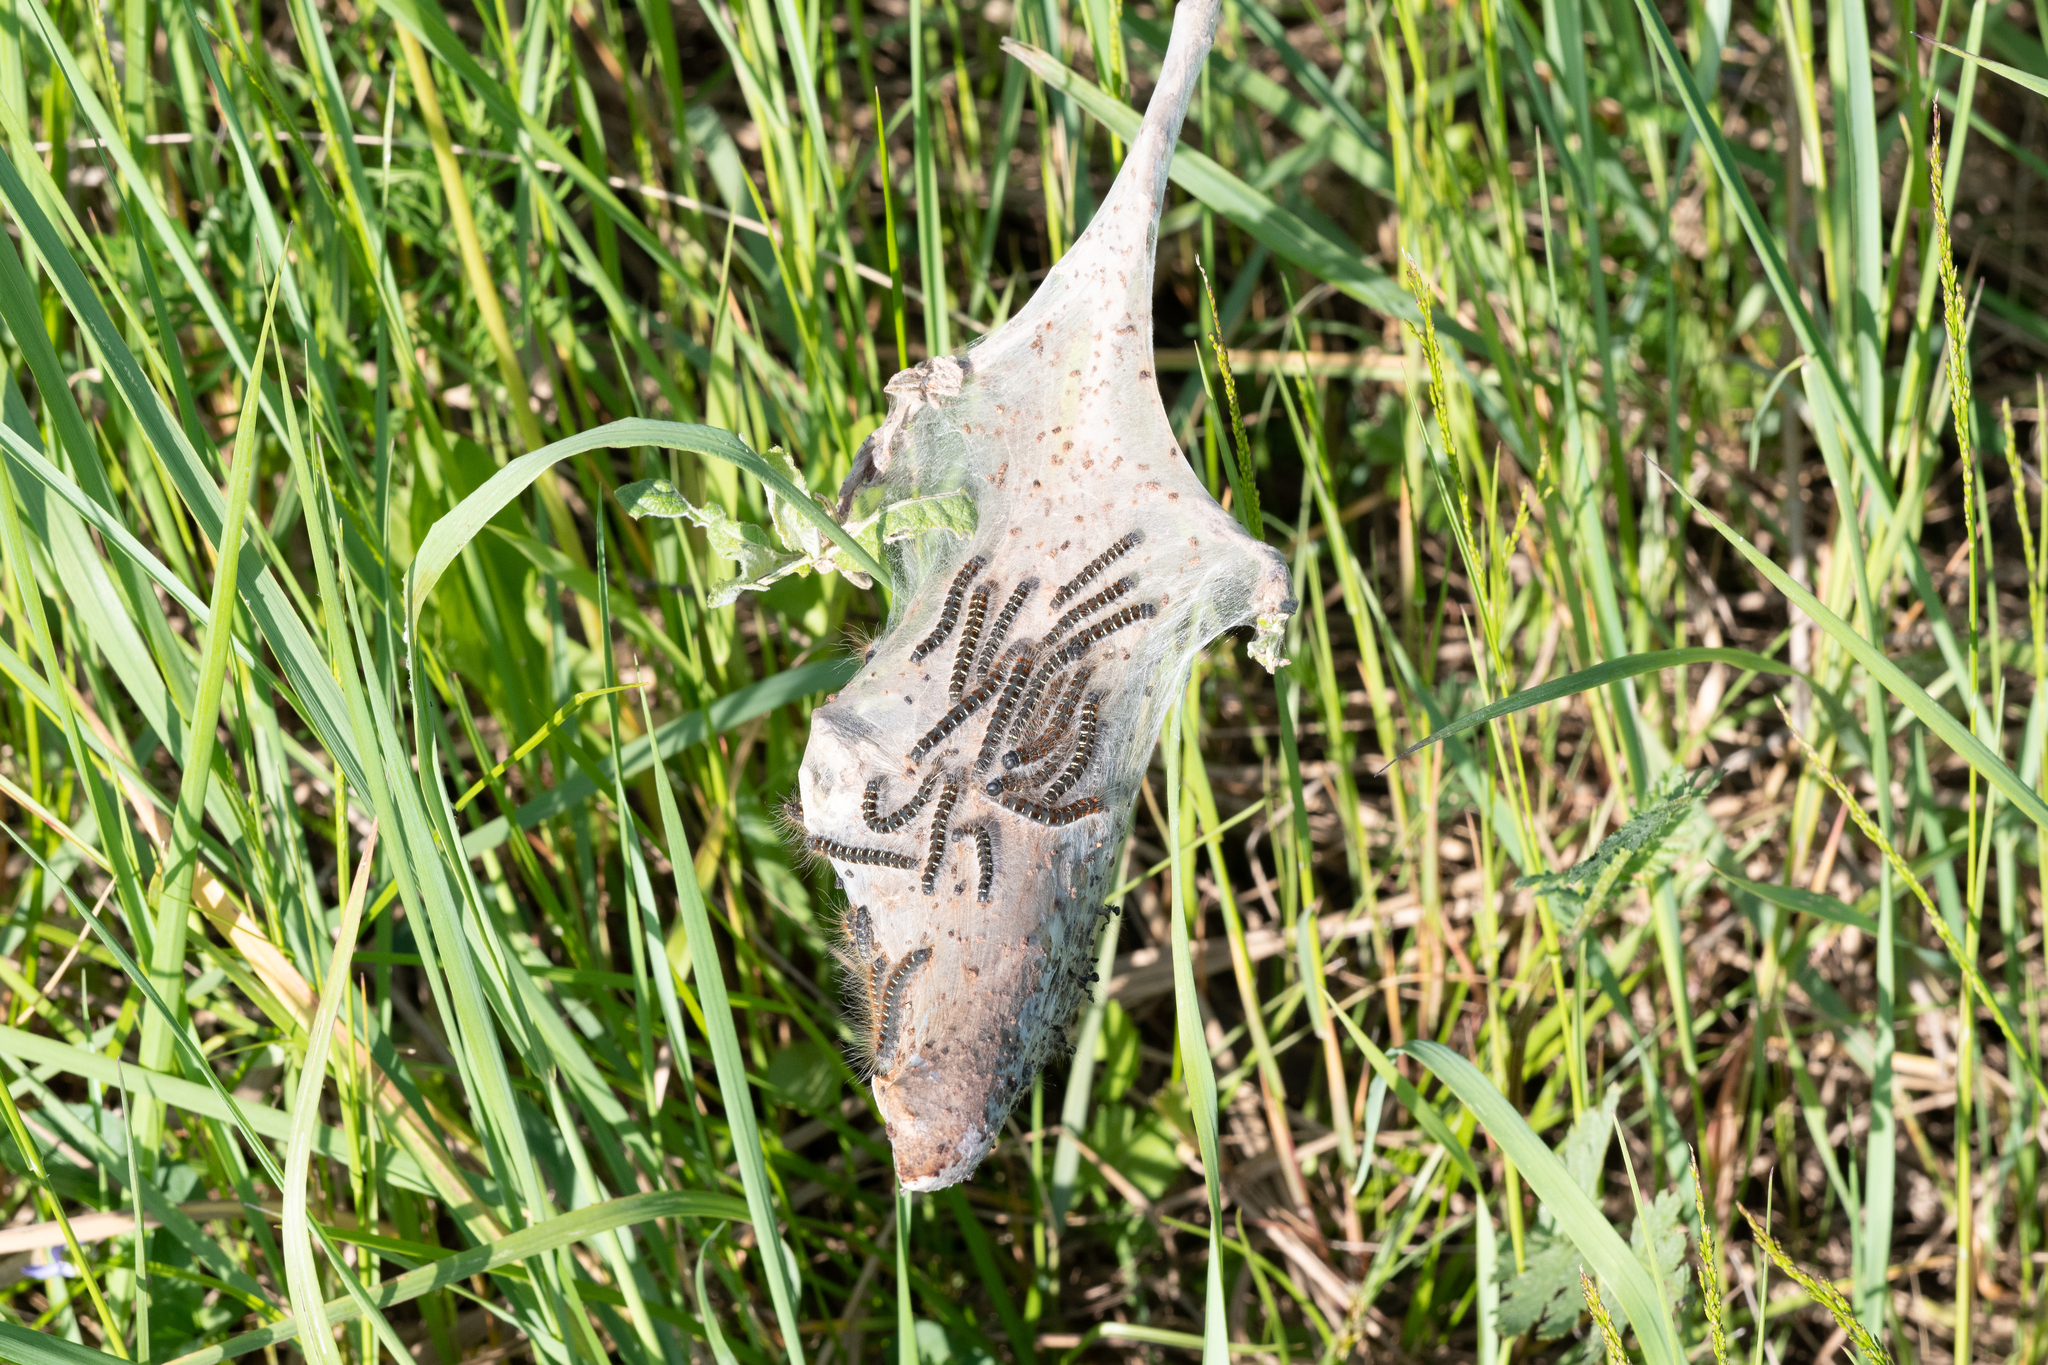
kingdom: Animalia
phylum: Arthropoda
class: Insecta
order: Lepidoptera
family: Lasiocampidae
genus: Eriogaster
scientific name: Eriogaster lanestris
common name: Small eggar
